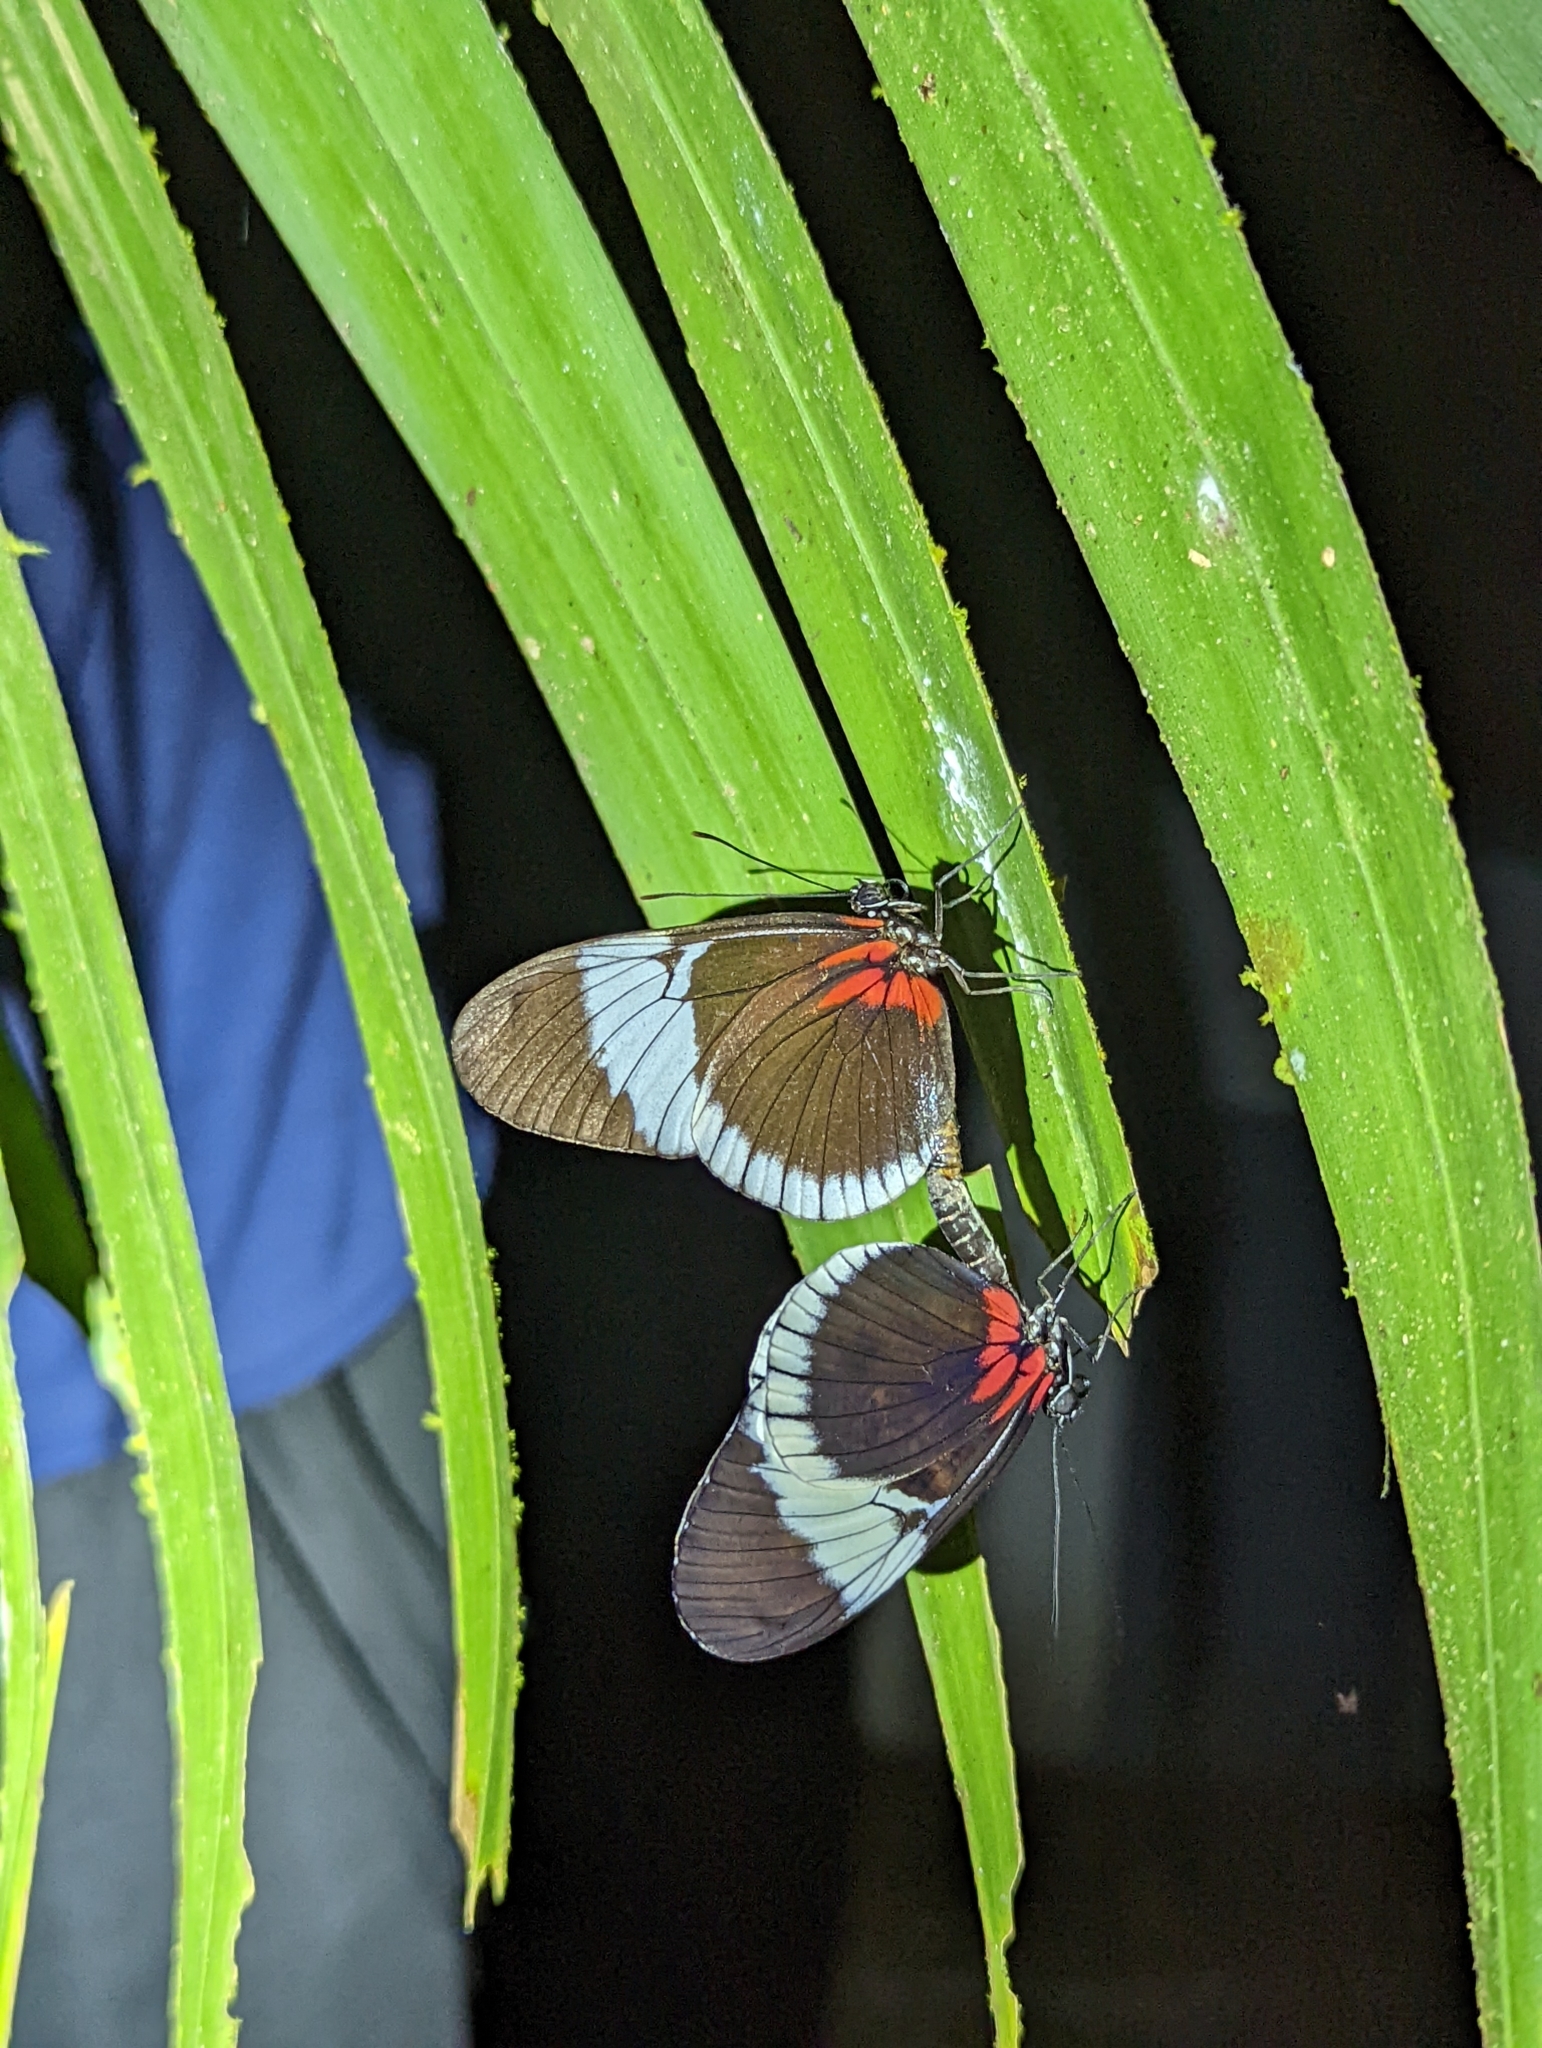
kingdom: Animalia
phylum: Arthropoda
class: Insecta
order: Lepidoptera
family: Nymphalidae
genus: Heliconius
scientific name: Heliconius sapho
